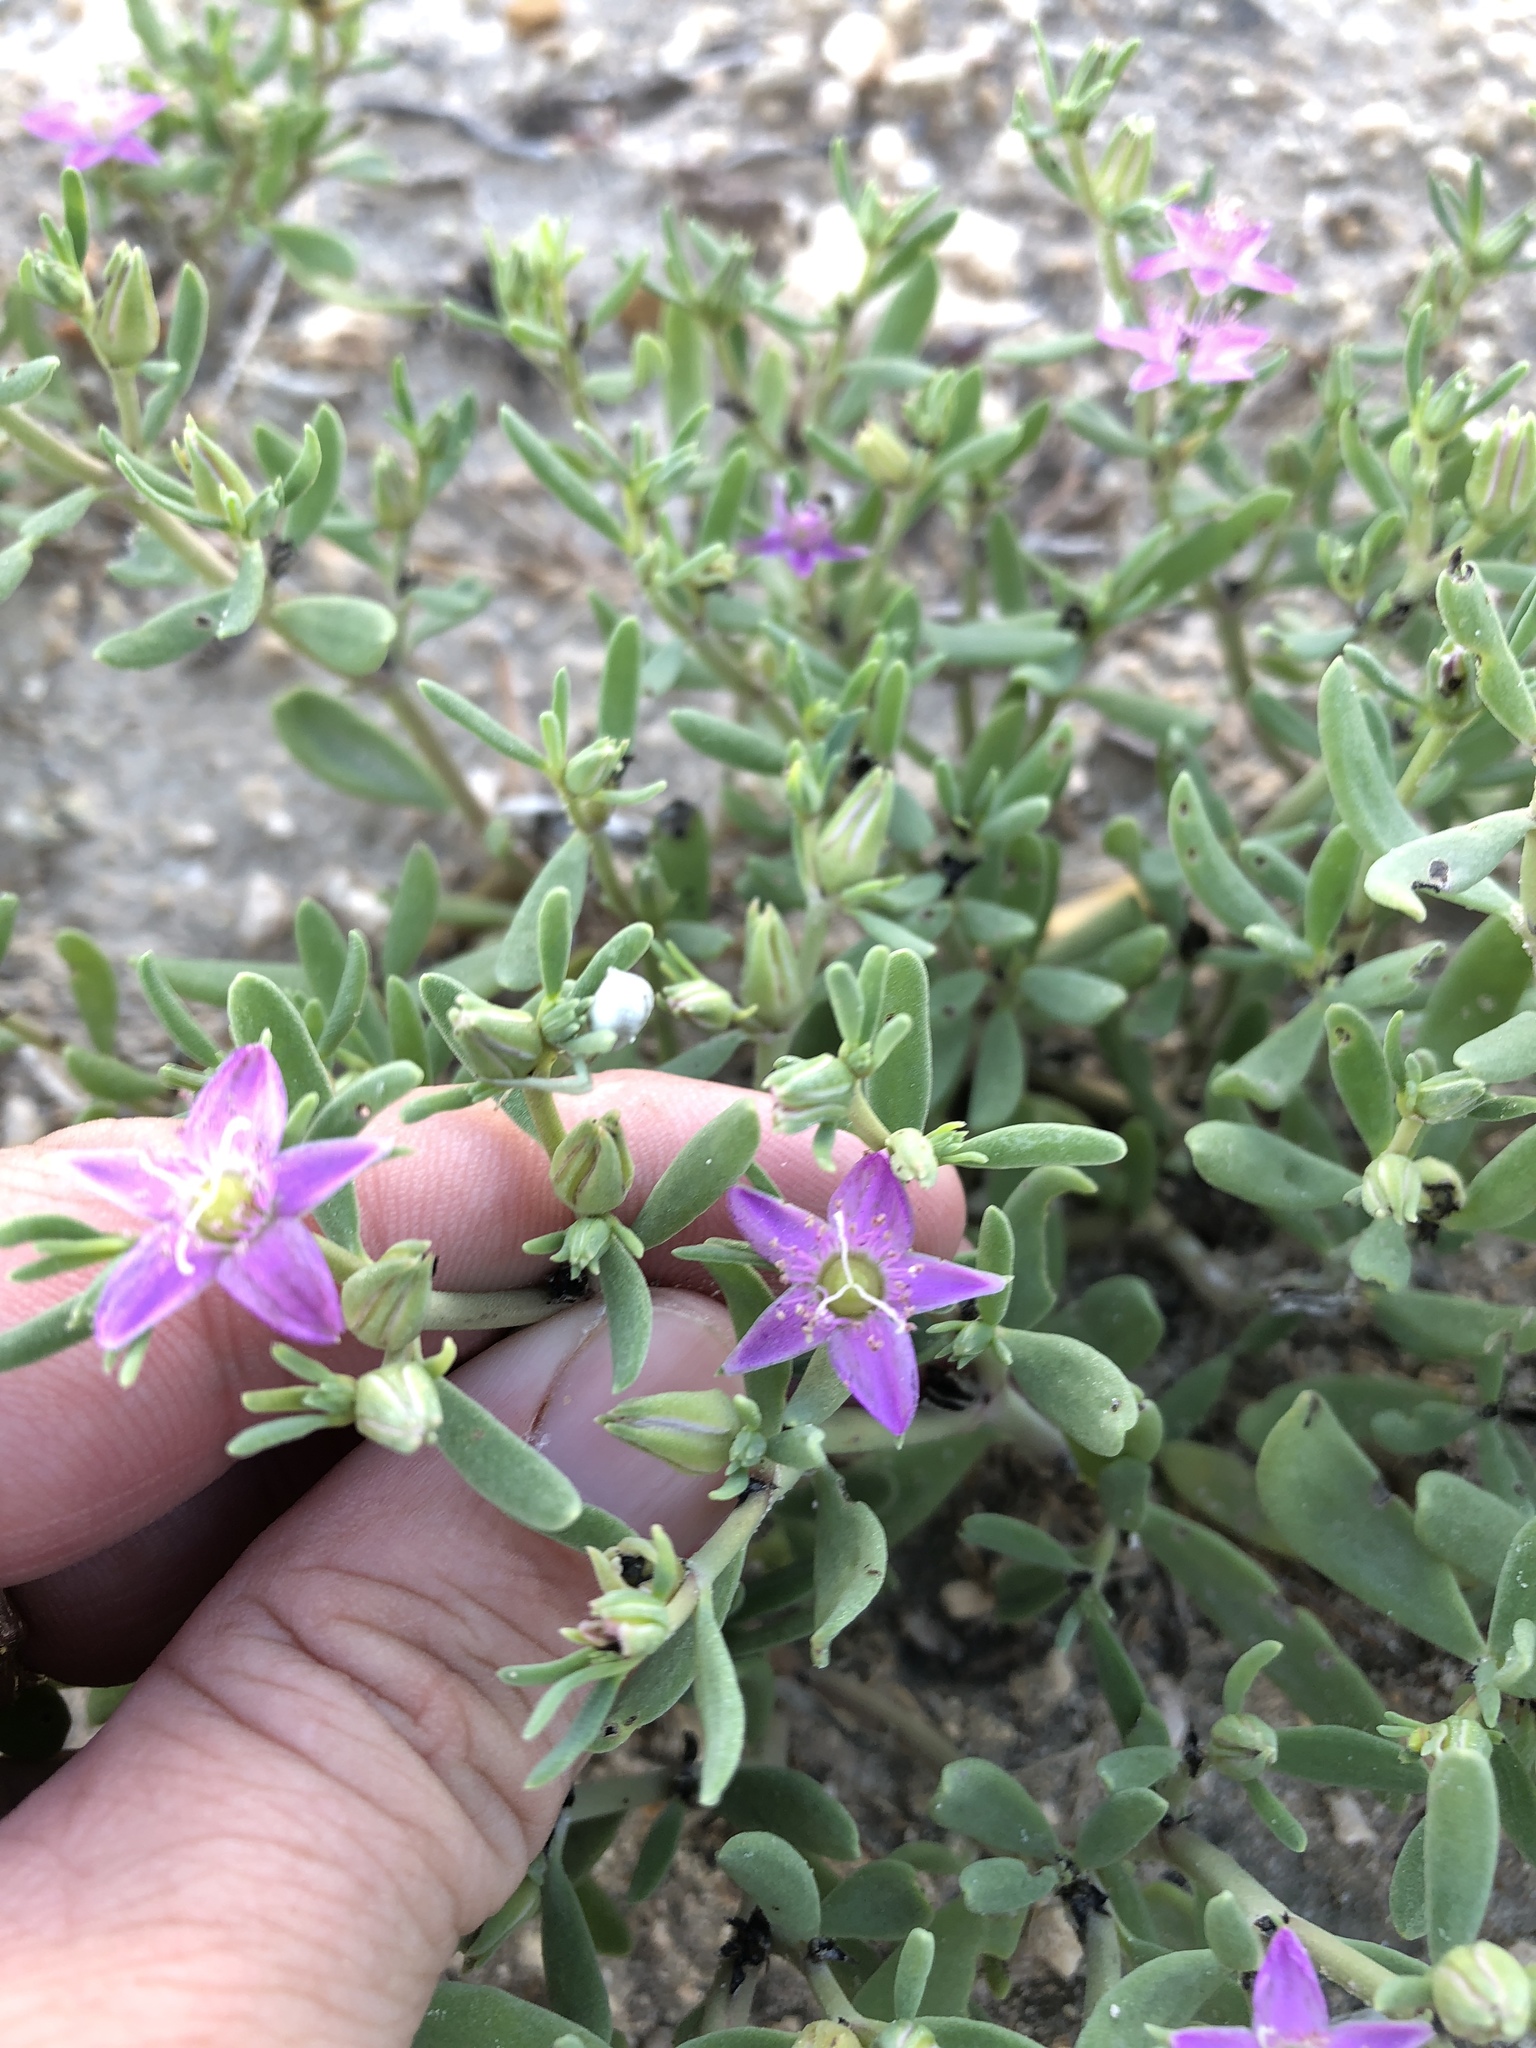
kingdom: Plantae
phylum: Tracheophyta
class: Magnoliopsida
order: Caryophyllales
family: Aizoaceae
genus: Sesuvium
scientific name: Sesuvium portulacastrum
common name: Sea-purslane
